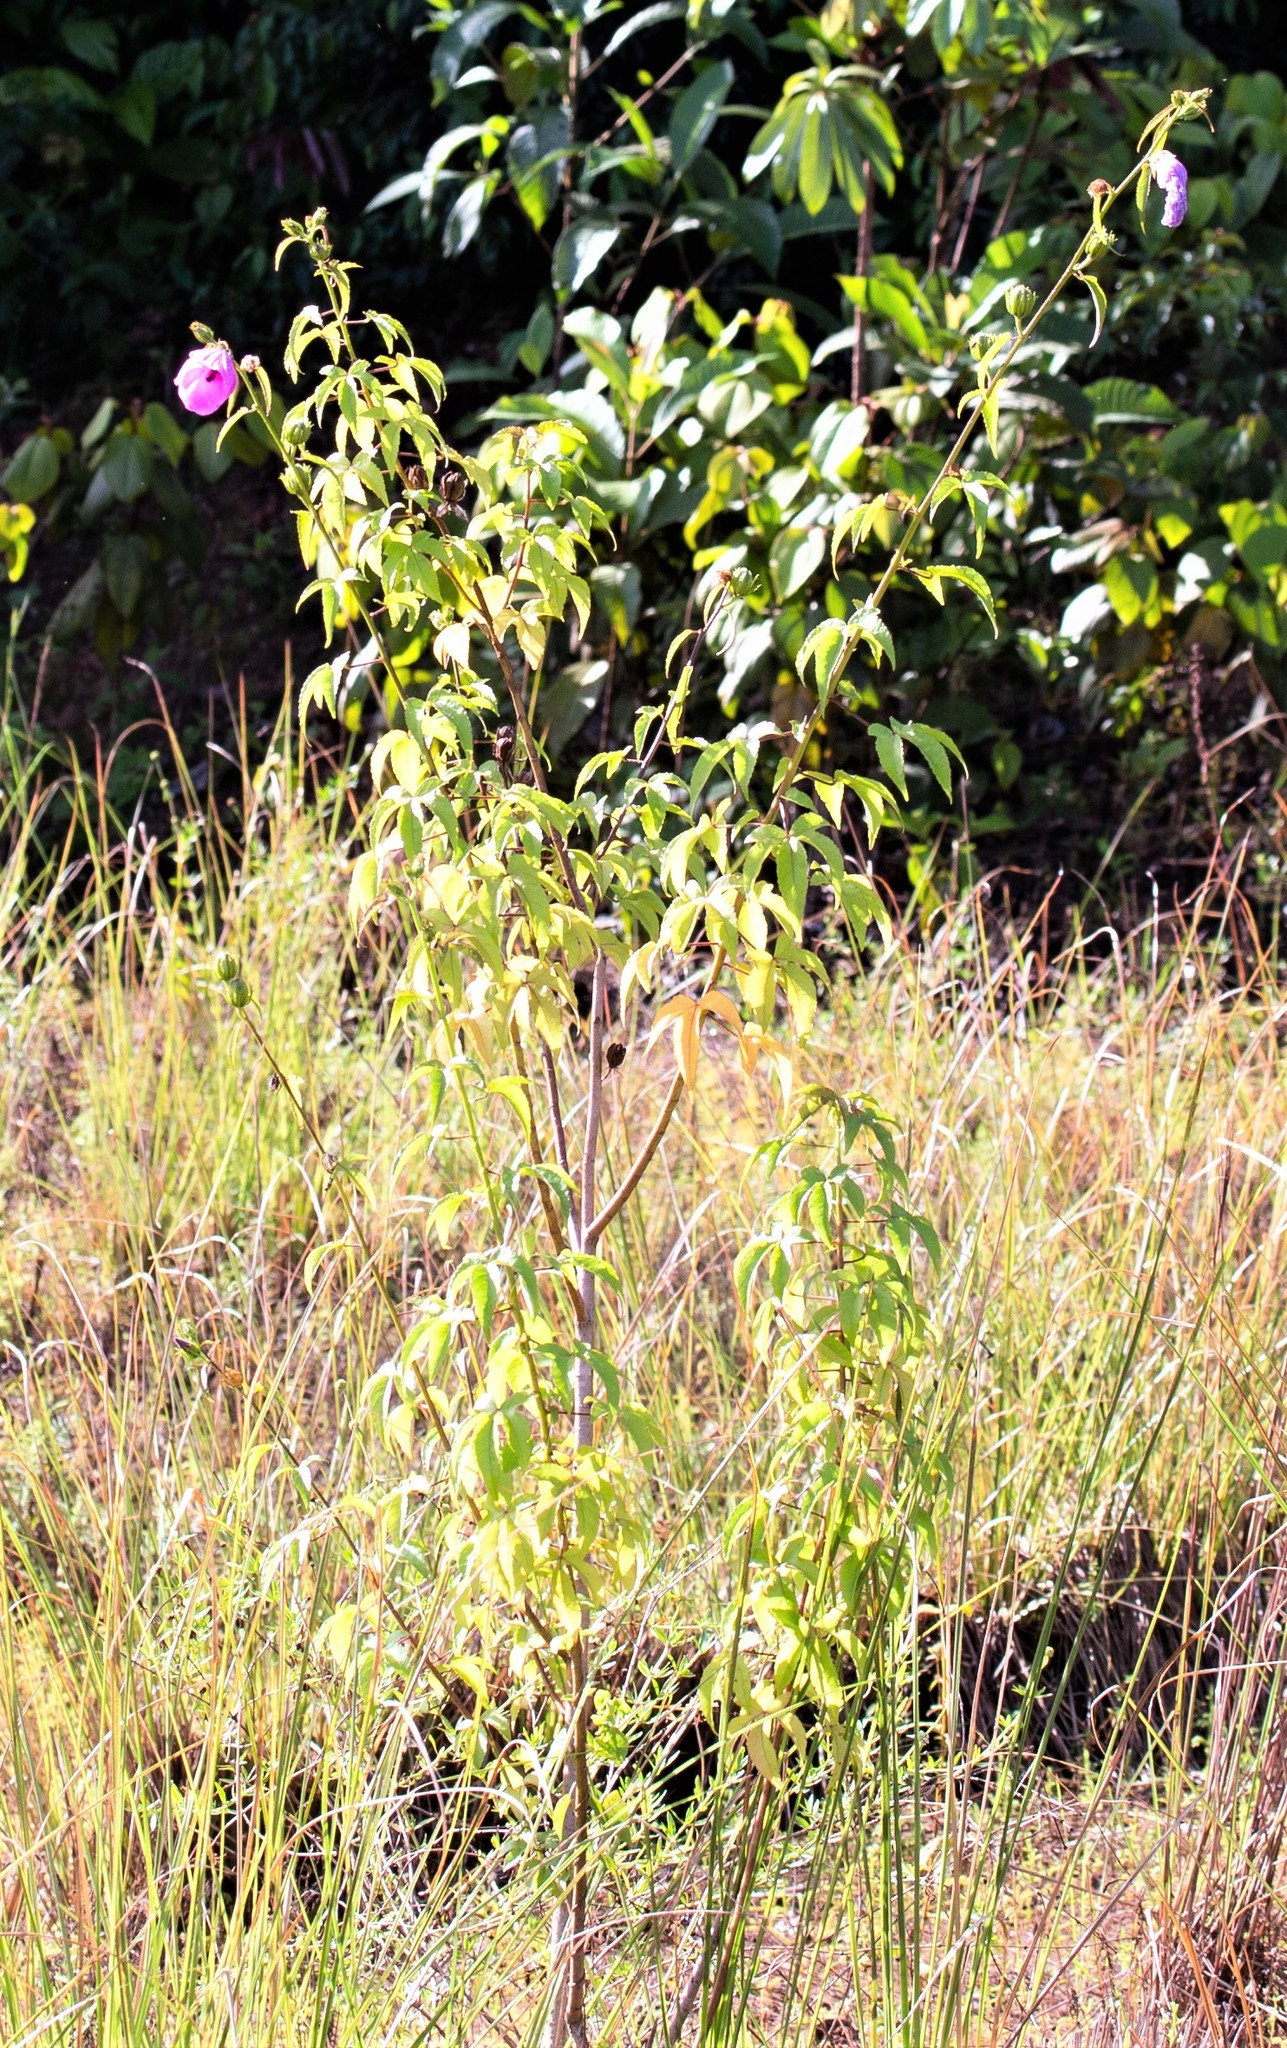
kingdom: Plantae
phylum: Tracheophyta
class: Magnoliopsida
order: Malvales
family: Malvaceae
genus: Hibiscus
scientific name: Hibiscus bifurcatus
